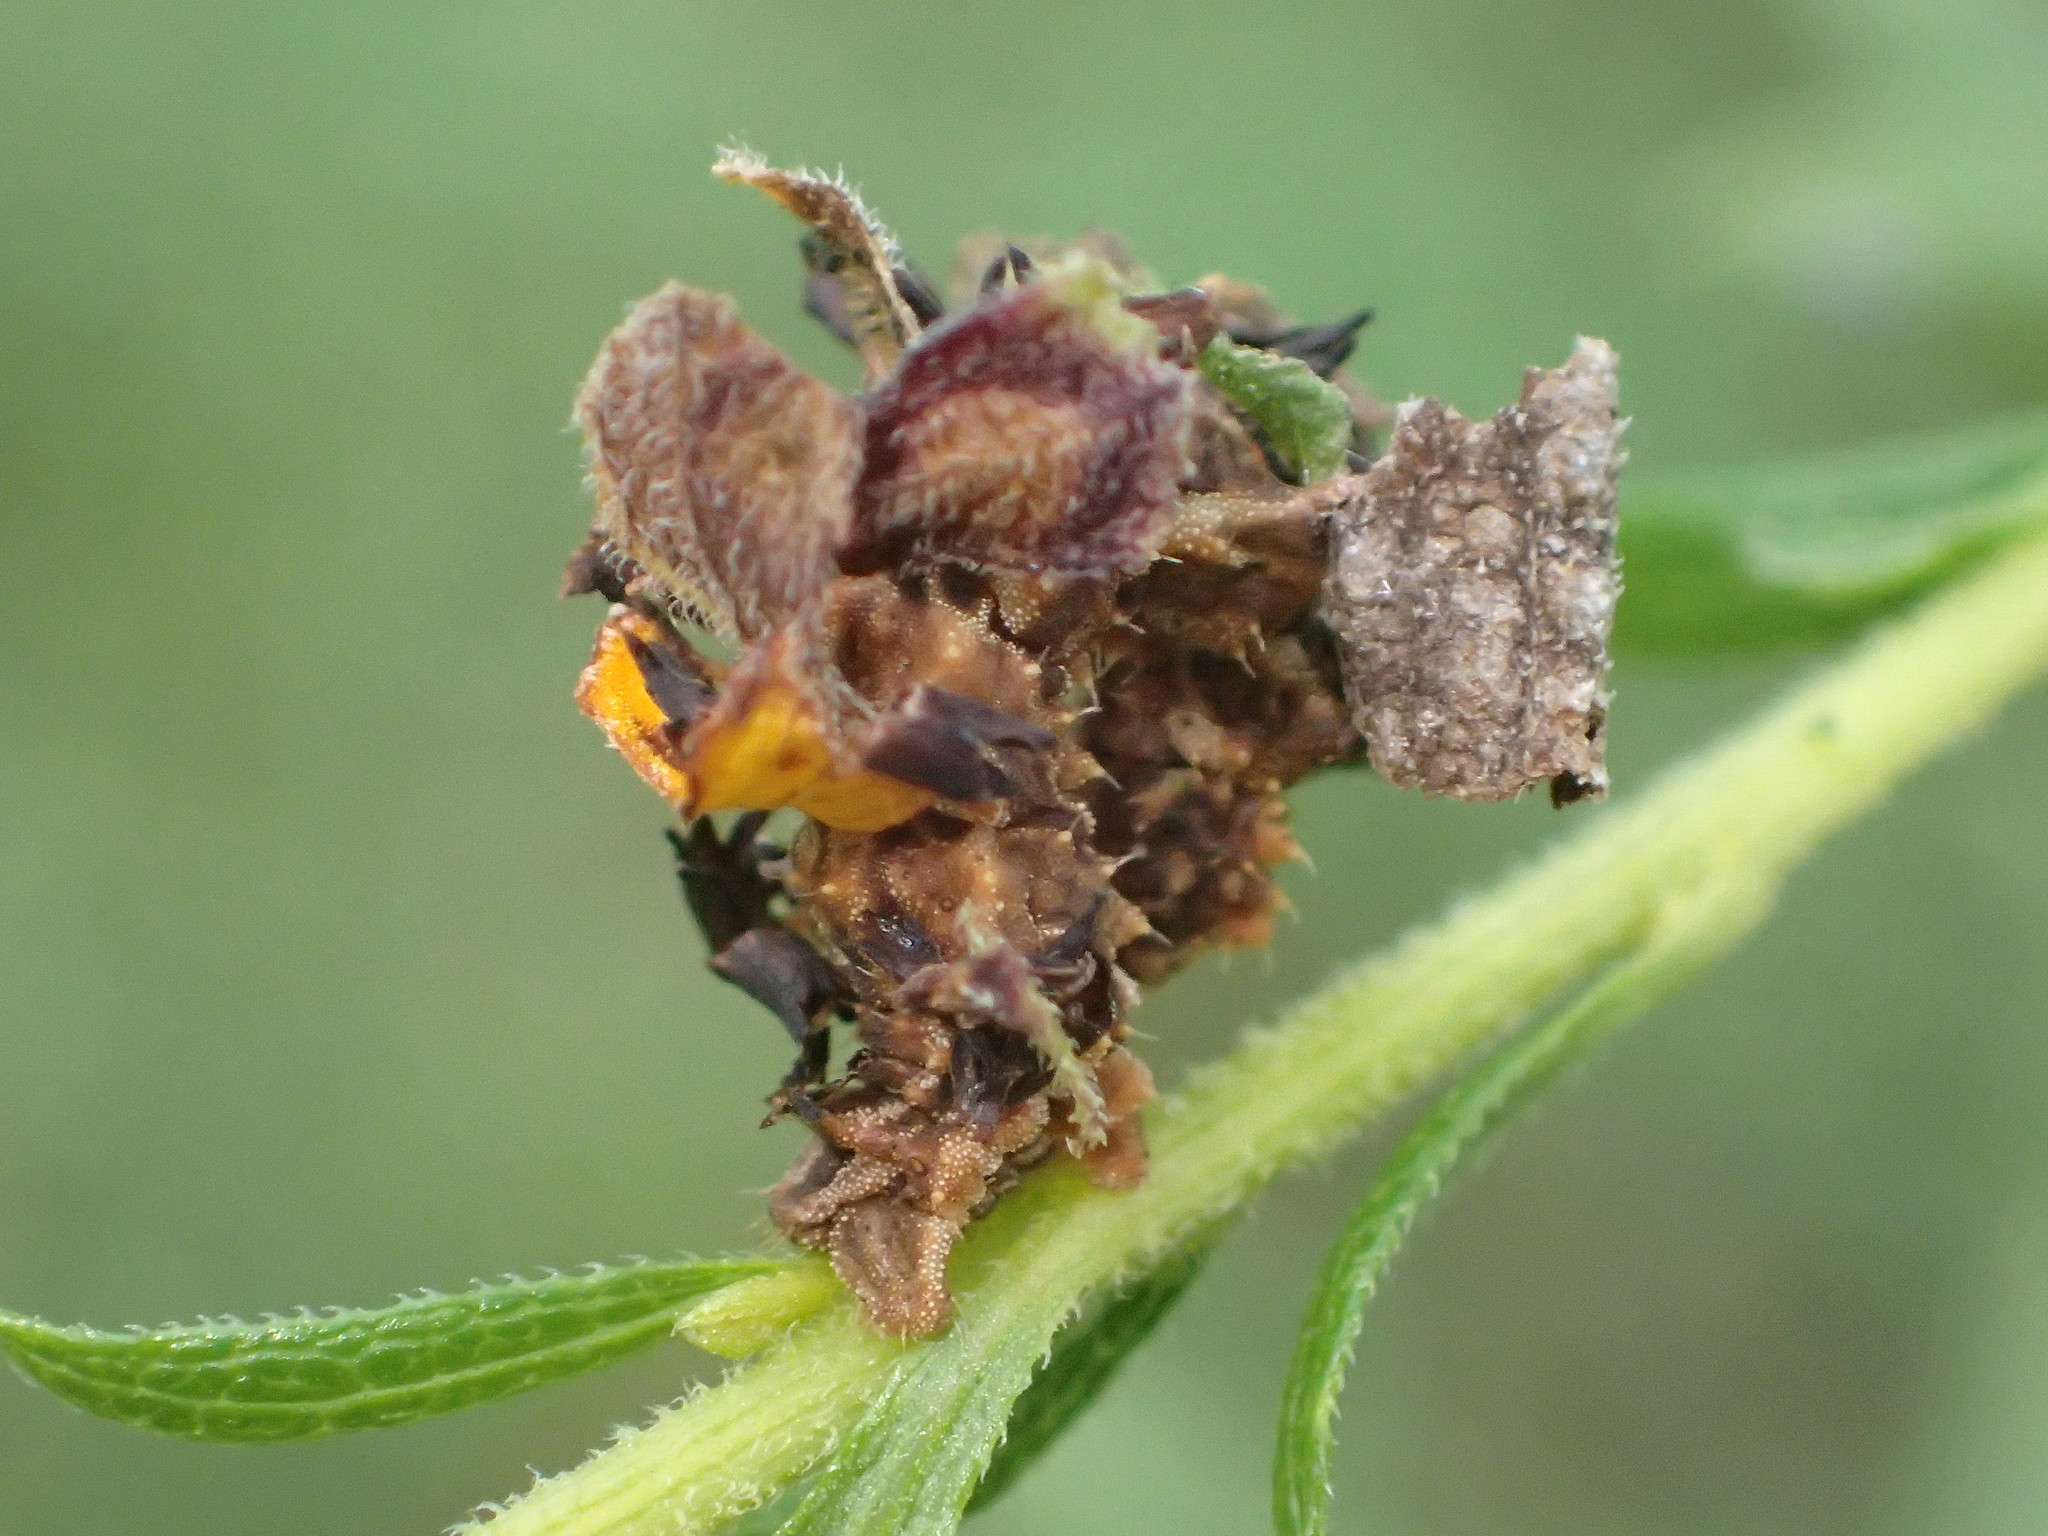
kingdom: Animalia
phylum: Arthropoda
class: Insecta
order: Lepidoptera
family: Geometridae
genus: Synchlora
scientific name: Synchlora aerata
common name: Wavy-lined emerald
